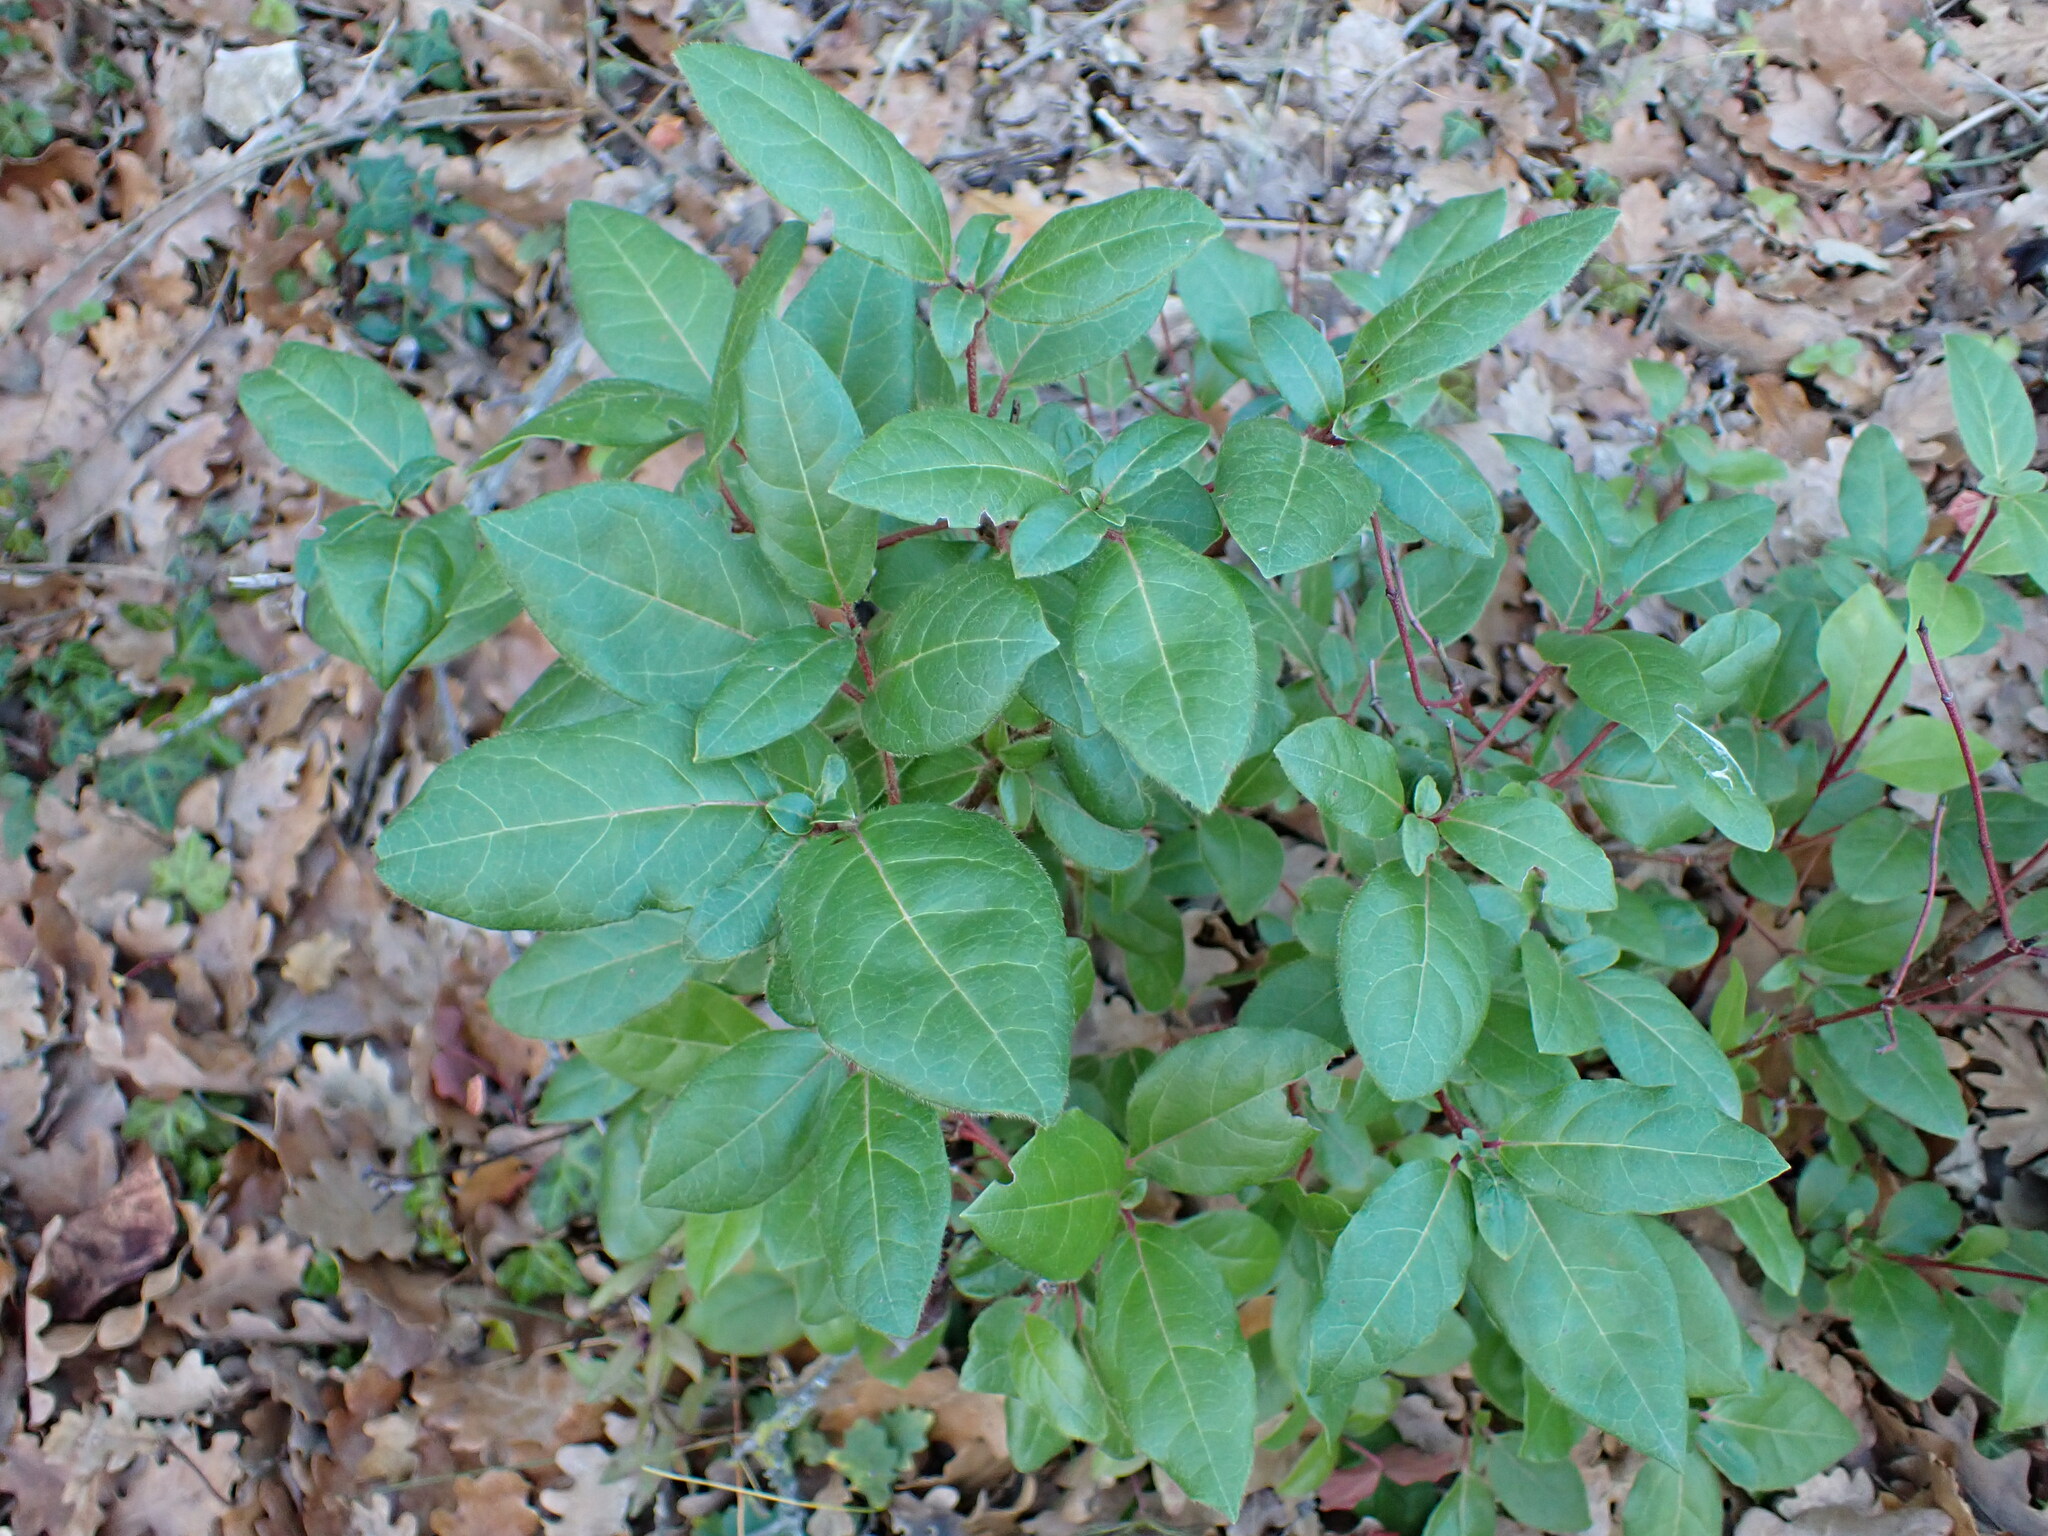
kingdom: Plantae
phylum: Tracheophyta
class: Magnoliopsida
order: Dipsacales
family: Viburnaceae
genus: Viburnum
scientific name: Viburnum tinus
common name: Laurustinus
